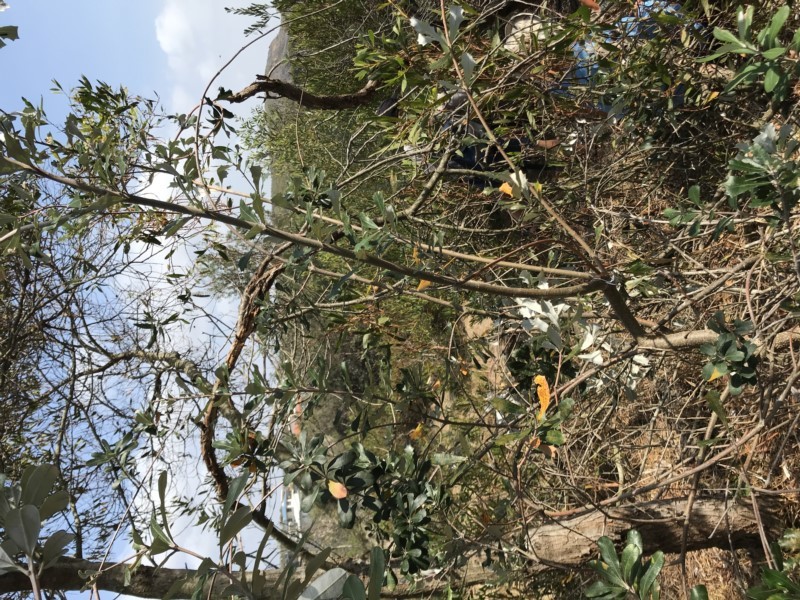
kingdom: Plantae
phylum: Tracheophyta
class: Magnoliopsida
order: Proteales
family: Proteaceae
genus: Banksia
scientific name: Banksia integrifolia
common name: White-honeysuckle
